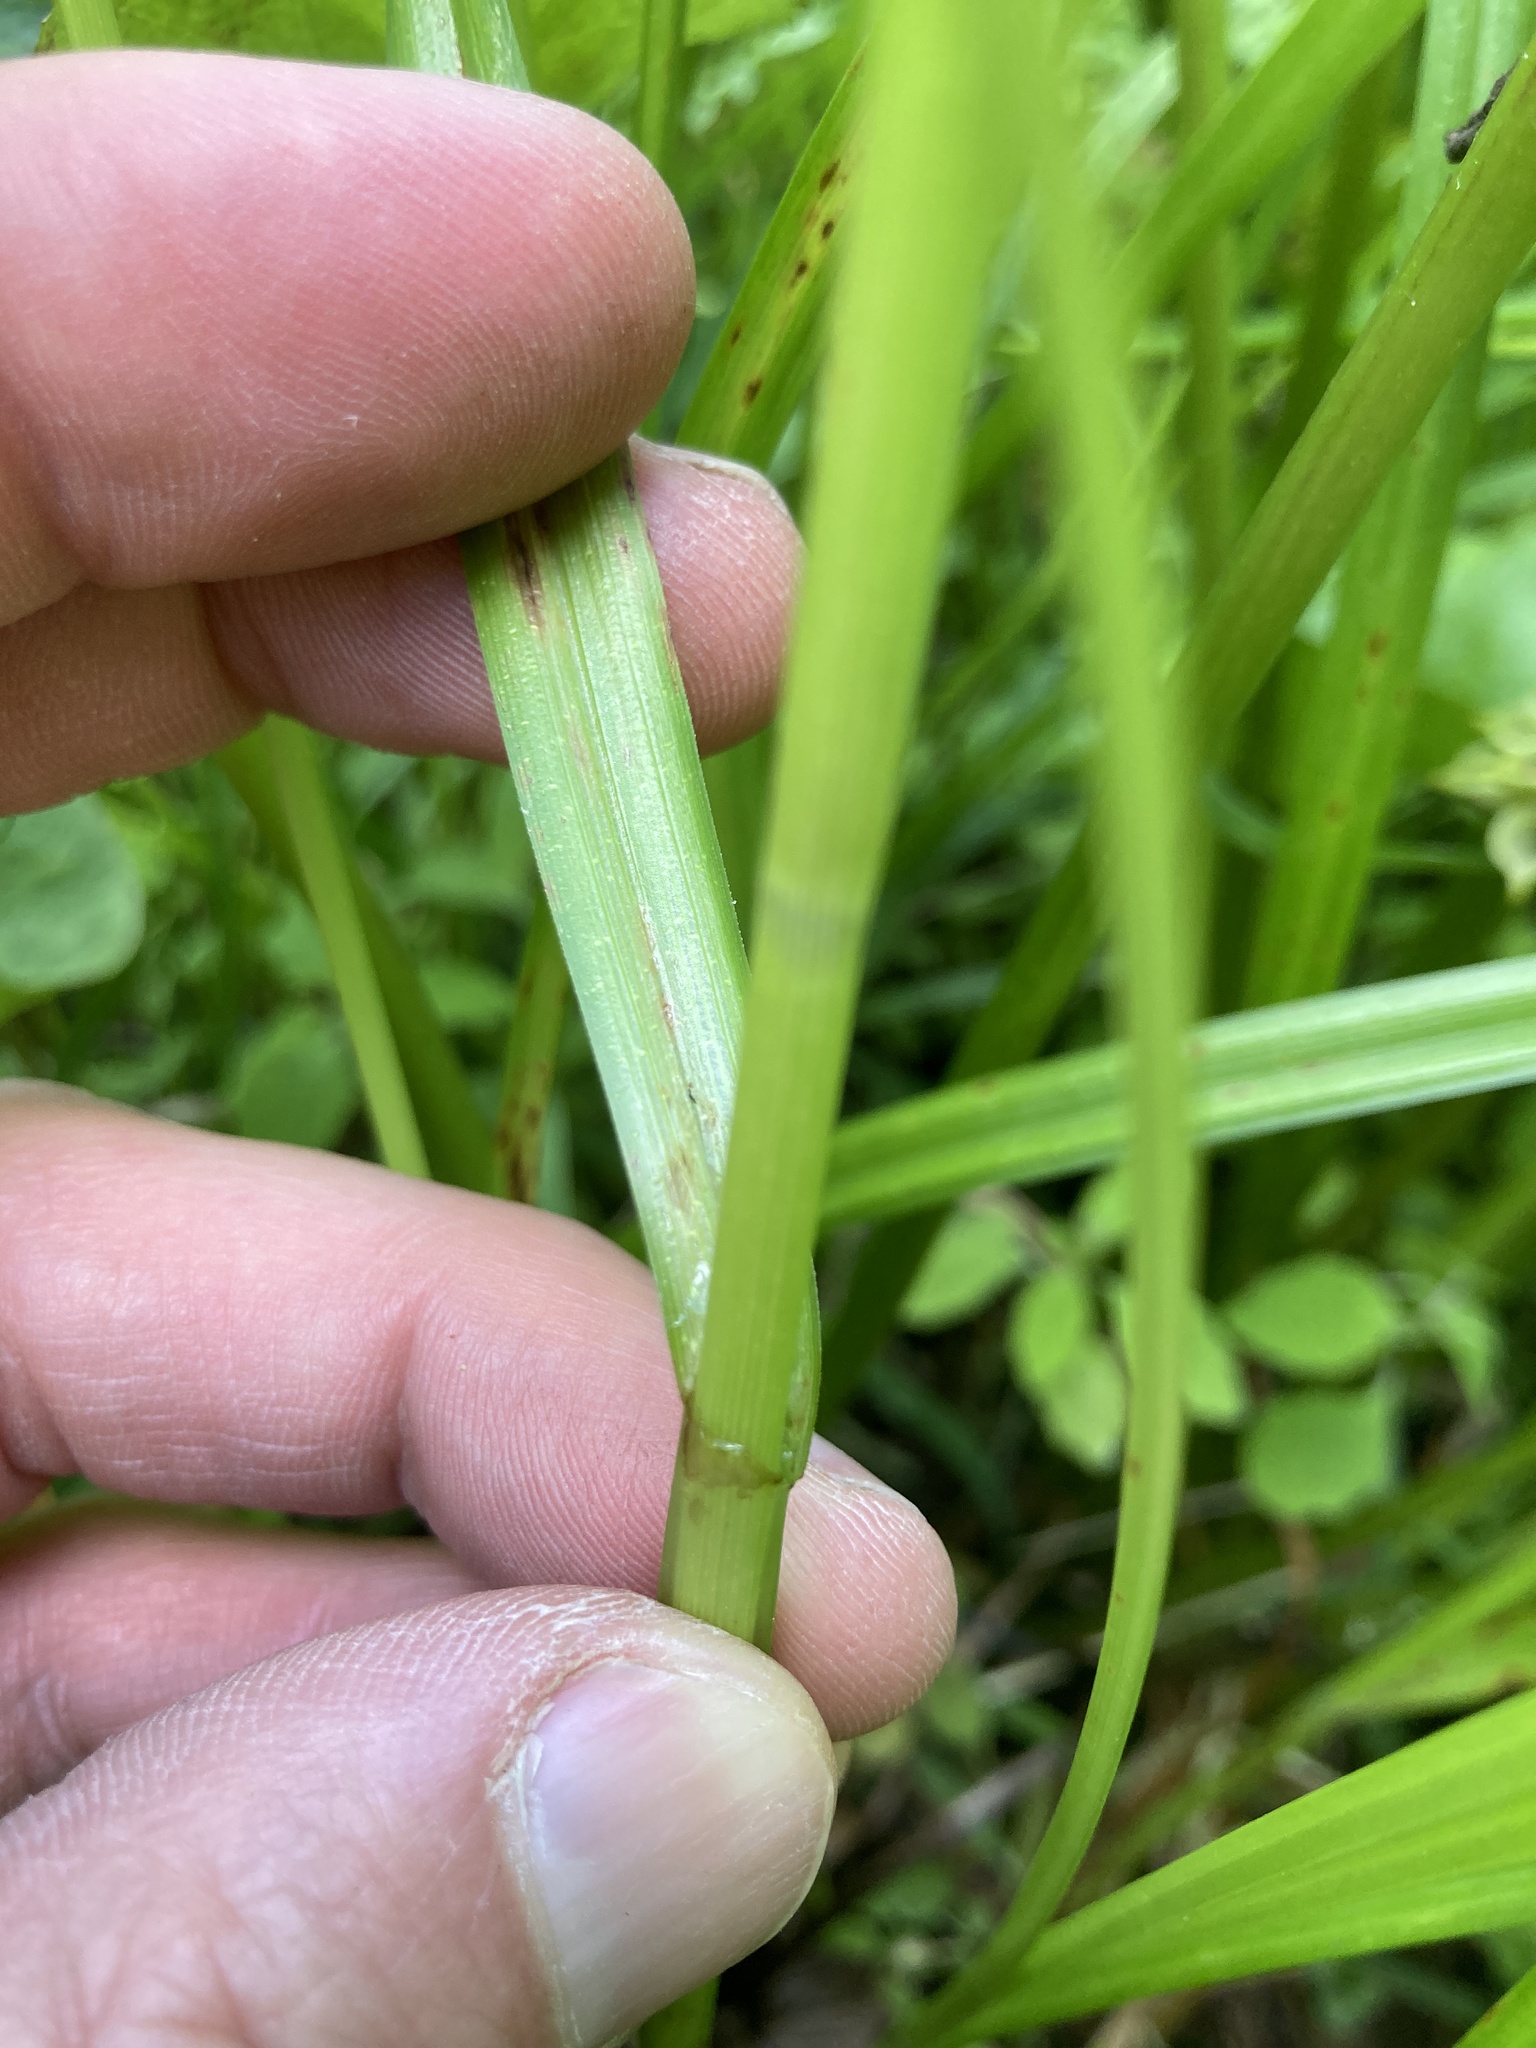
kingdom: Plantae
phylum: Tracheophyta
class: Liliopsida
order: Poales
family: Cyperaceae
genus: Carex
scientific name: Carex retrorsa
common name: Knot-sheath sedge
